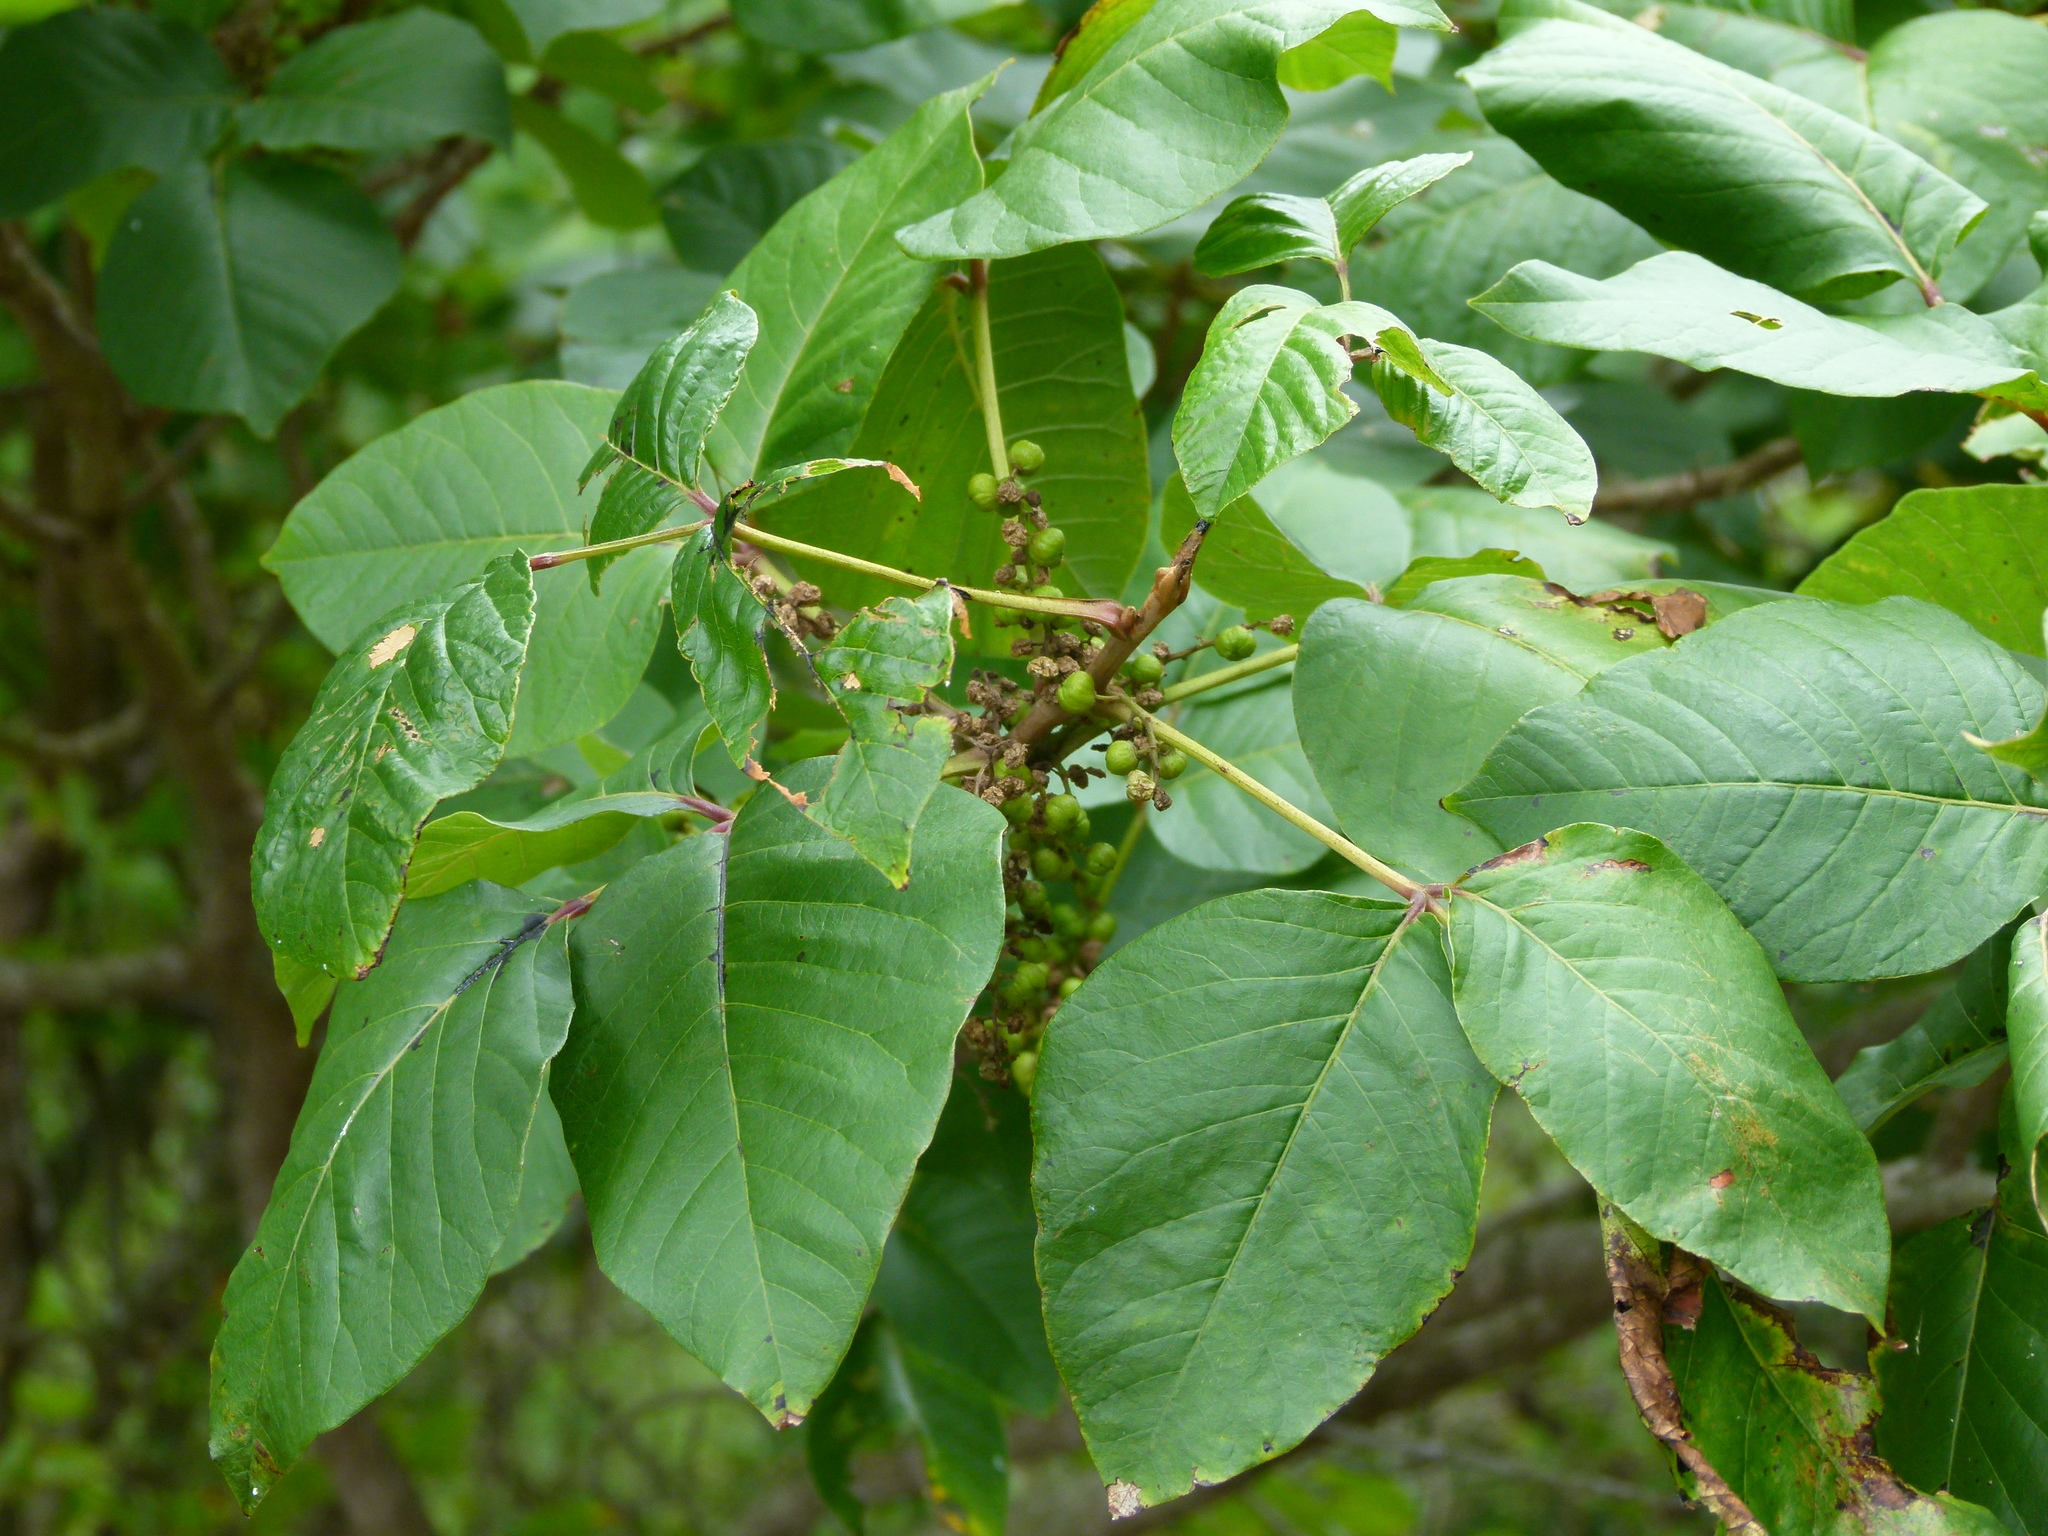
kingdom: Plantae
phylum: Tracheophyta
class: Magnoliopsida
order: Sapindales
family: Anacardiaceae
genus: Toxicodendron
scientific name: Toxicodendron radicans
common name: Poison ivy
